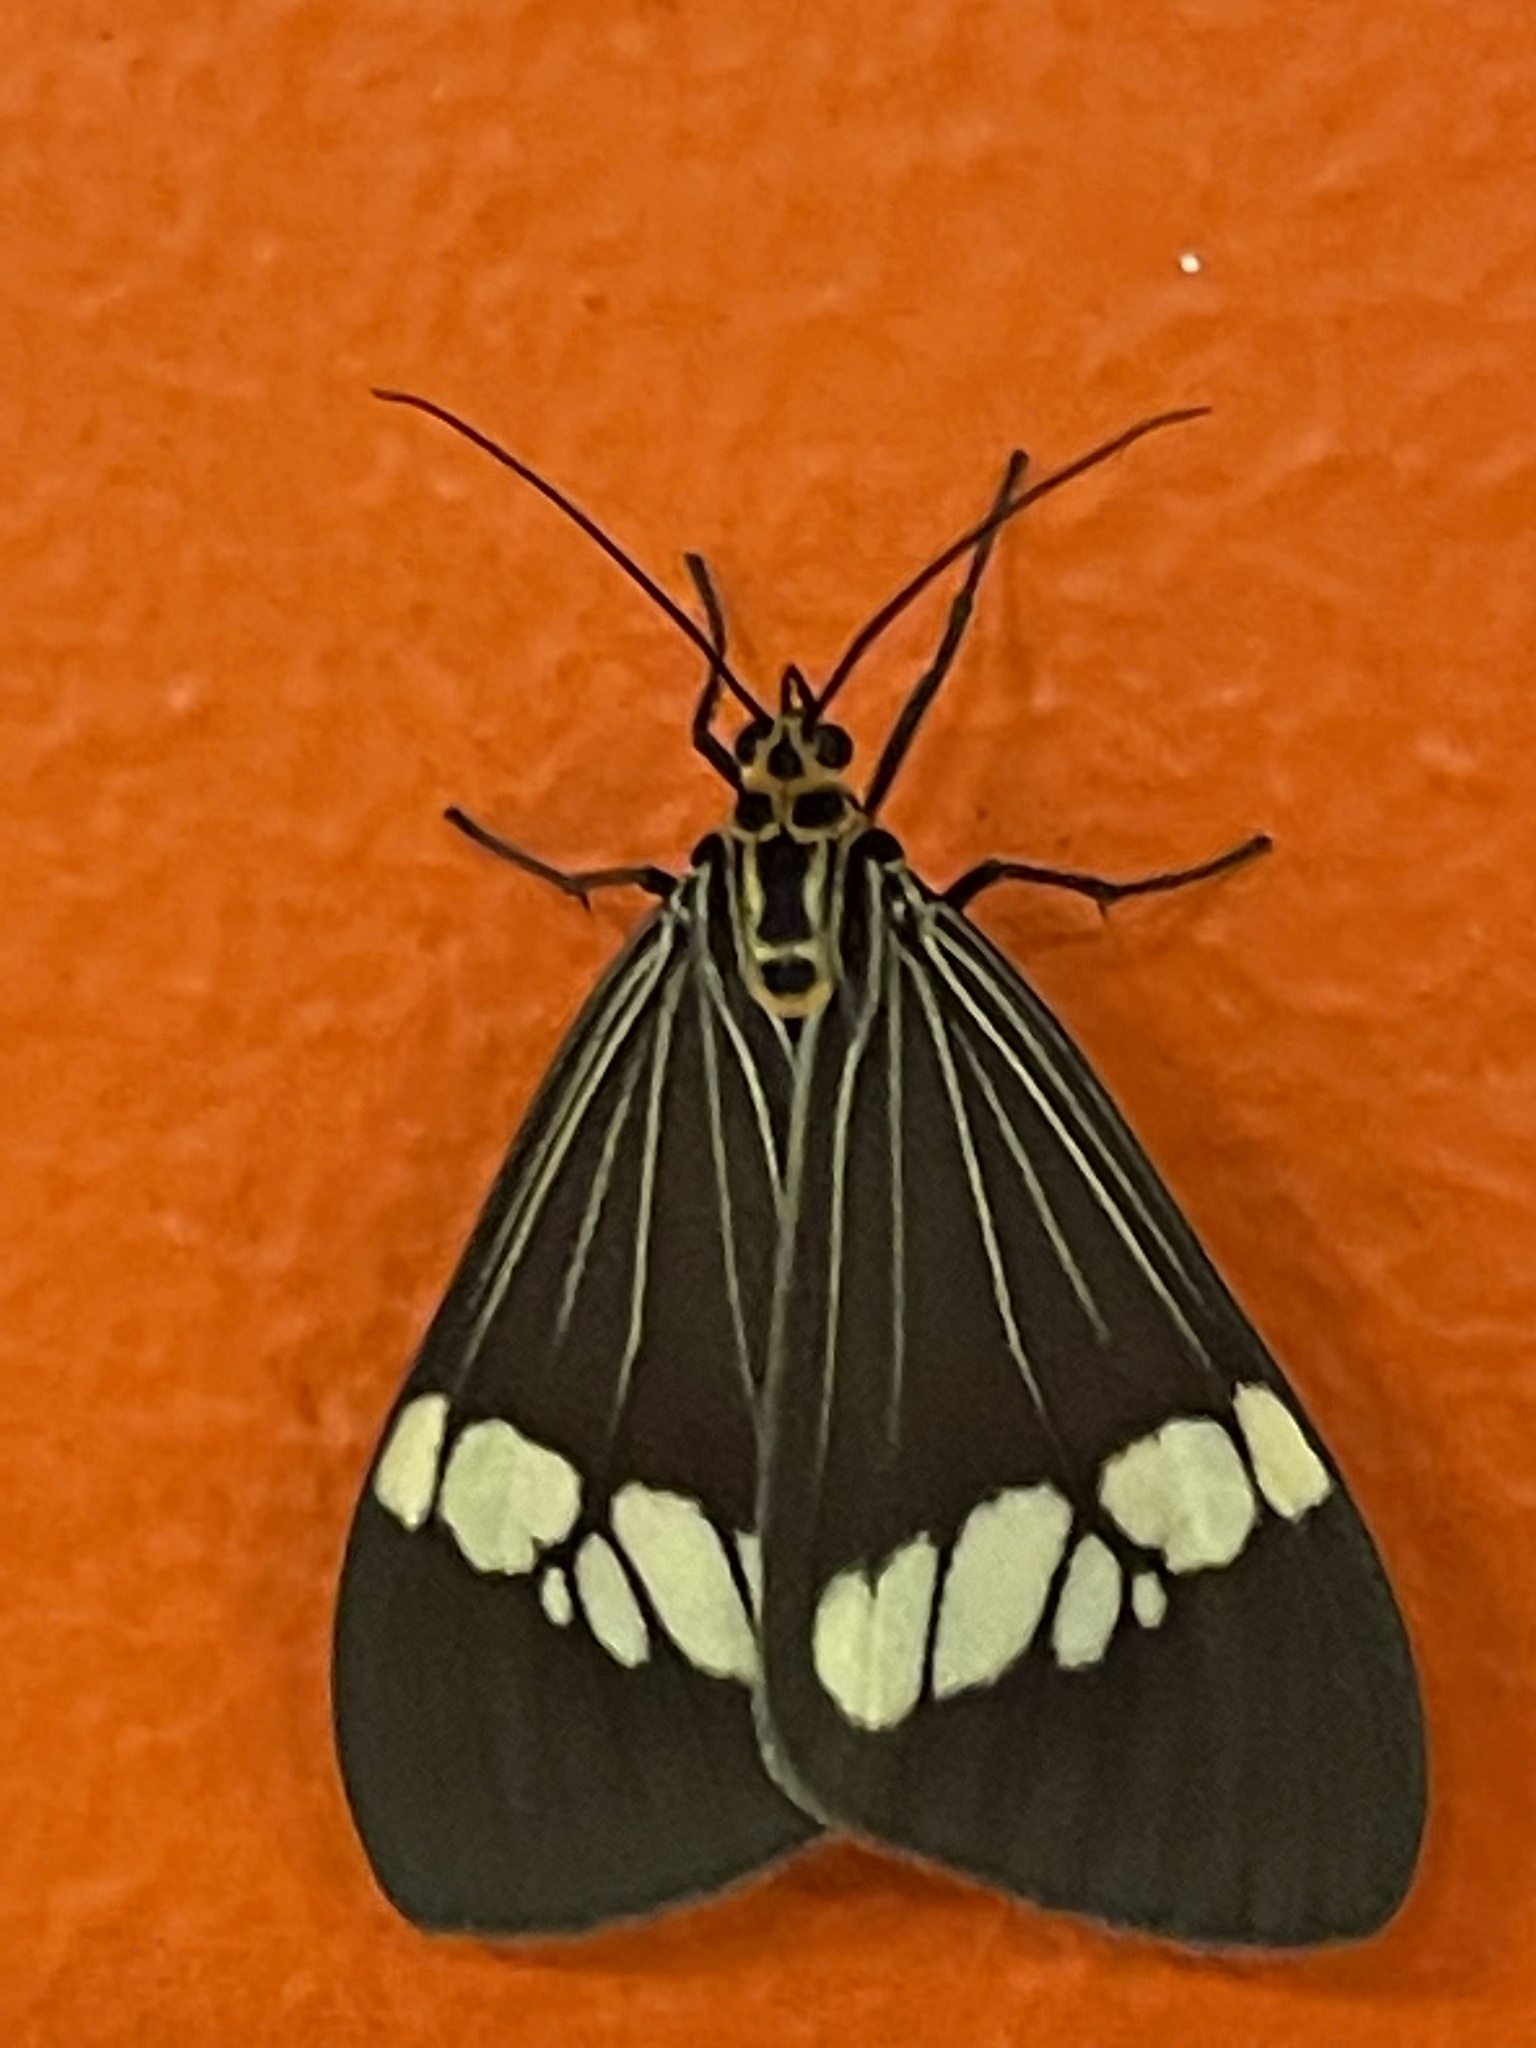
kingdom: Animalia
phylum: Arthropoda
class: Insecta
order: Lepidoptera
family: Erebidae
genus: Nyctemera
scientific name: Nyctemera baulus
